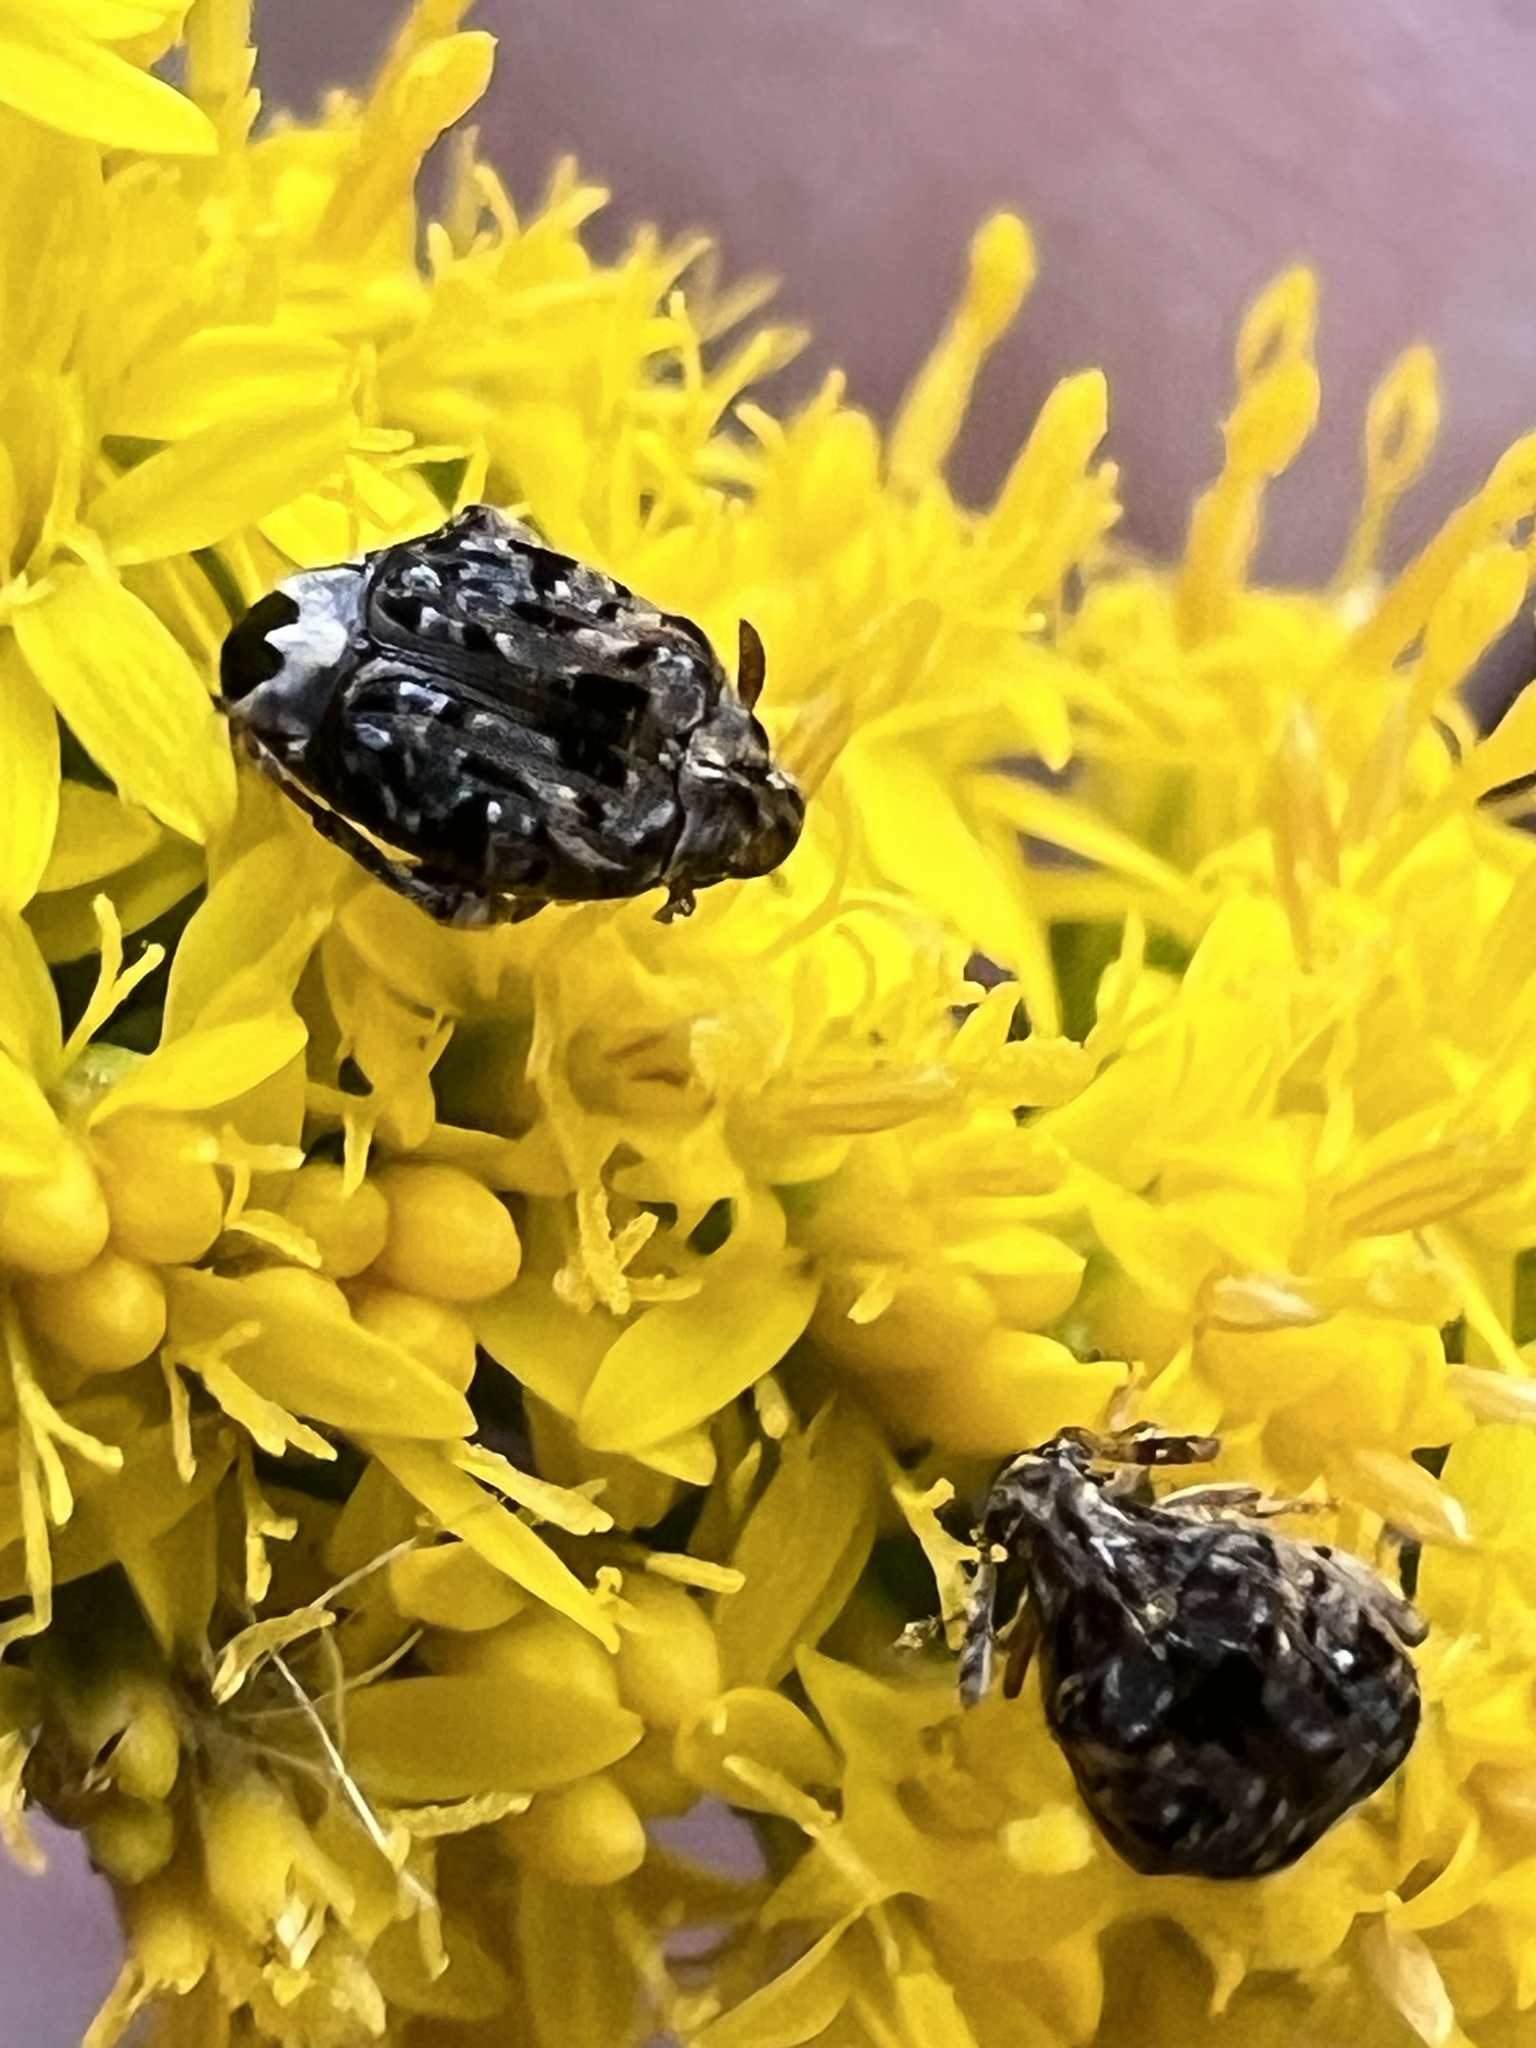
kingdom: Animalia
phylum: Arthropoda
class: Insecta
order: Coleoptera
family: Chrysomelidae
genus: Gibbobruchus
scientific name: Gibbobruchus mimus
